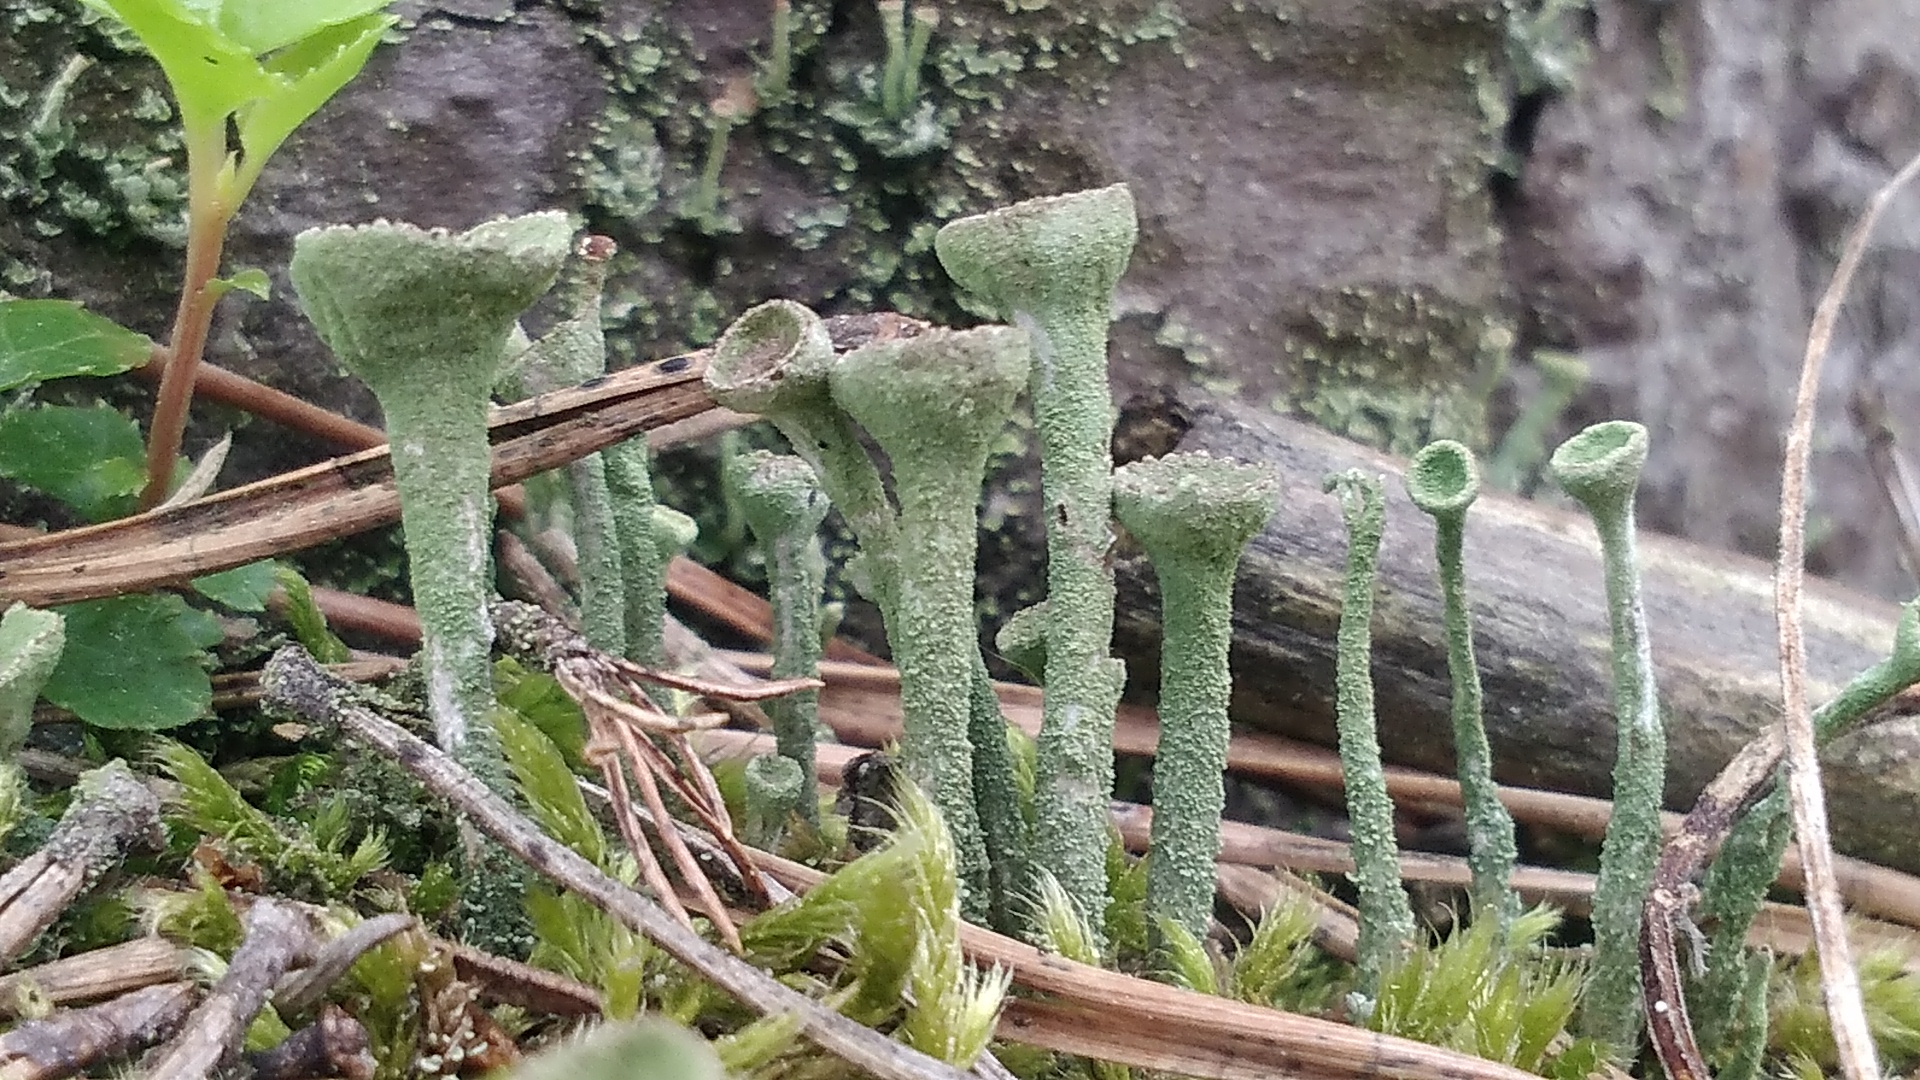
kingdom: Fungi
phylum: Ascomycota
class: Lecanoromycetes
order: Lecanorales
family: Cladoniaceae
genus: Cladonia
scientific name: Cladonia fimbriata
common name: Powdered trumpet lichen
